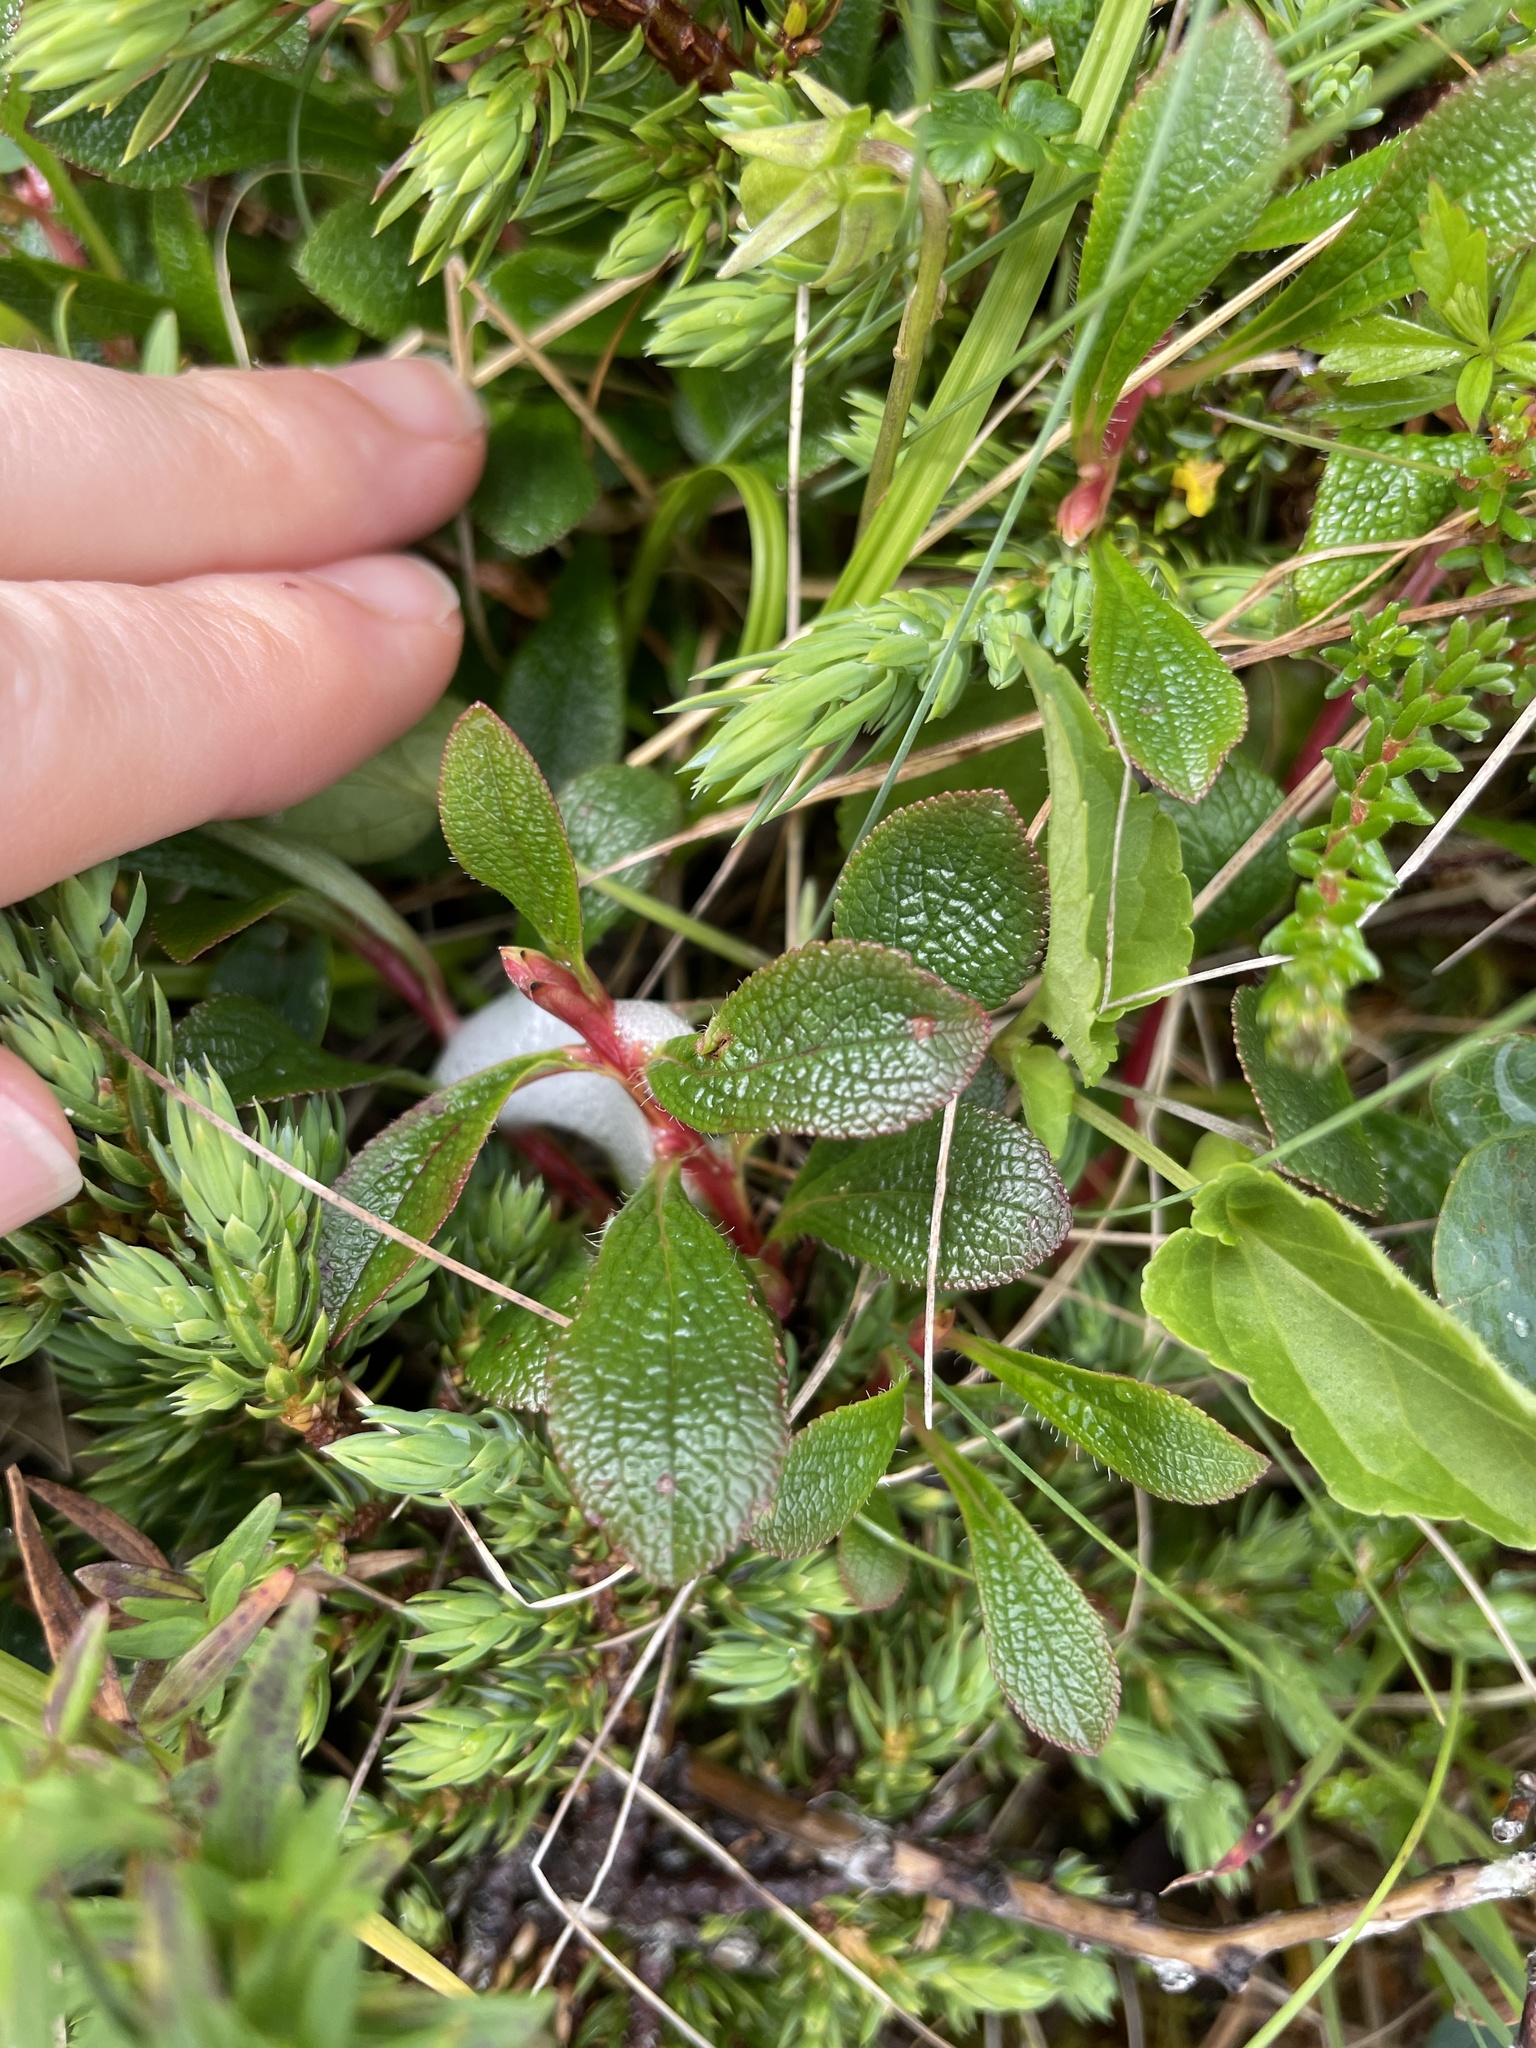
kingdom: Plantae
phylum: Tracheophyta
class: Magnoliopsida
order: Ericales
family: Ericaceae
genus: Arctostaphylos
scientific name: Arctostaphylos alpinus
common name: Alpine bearberry
